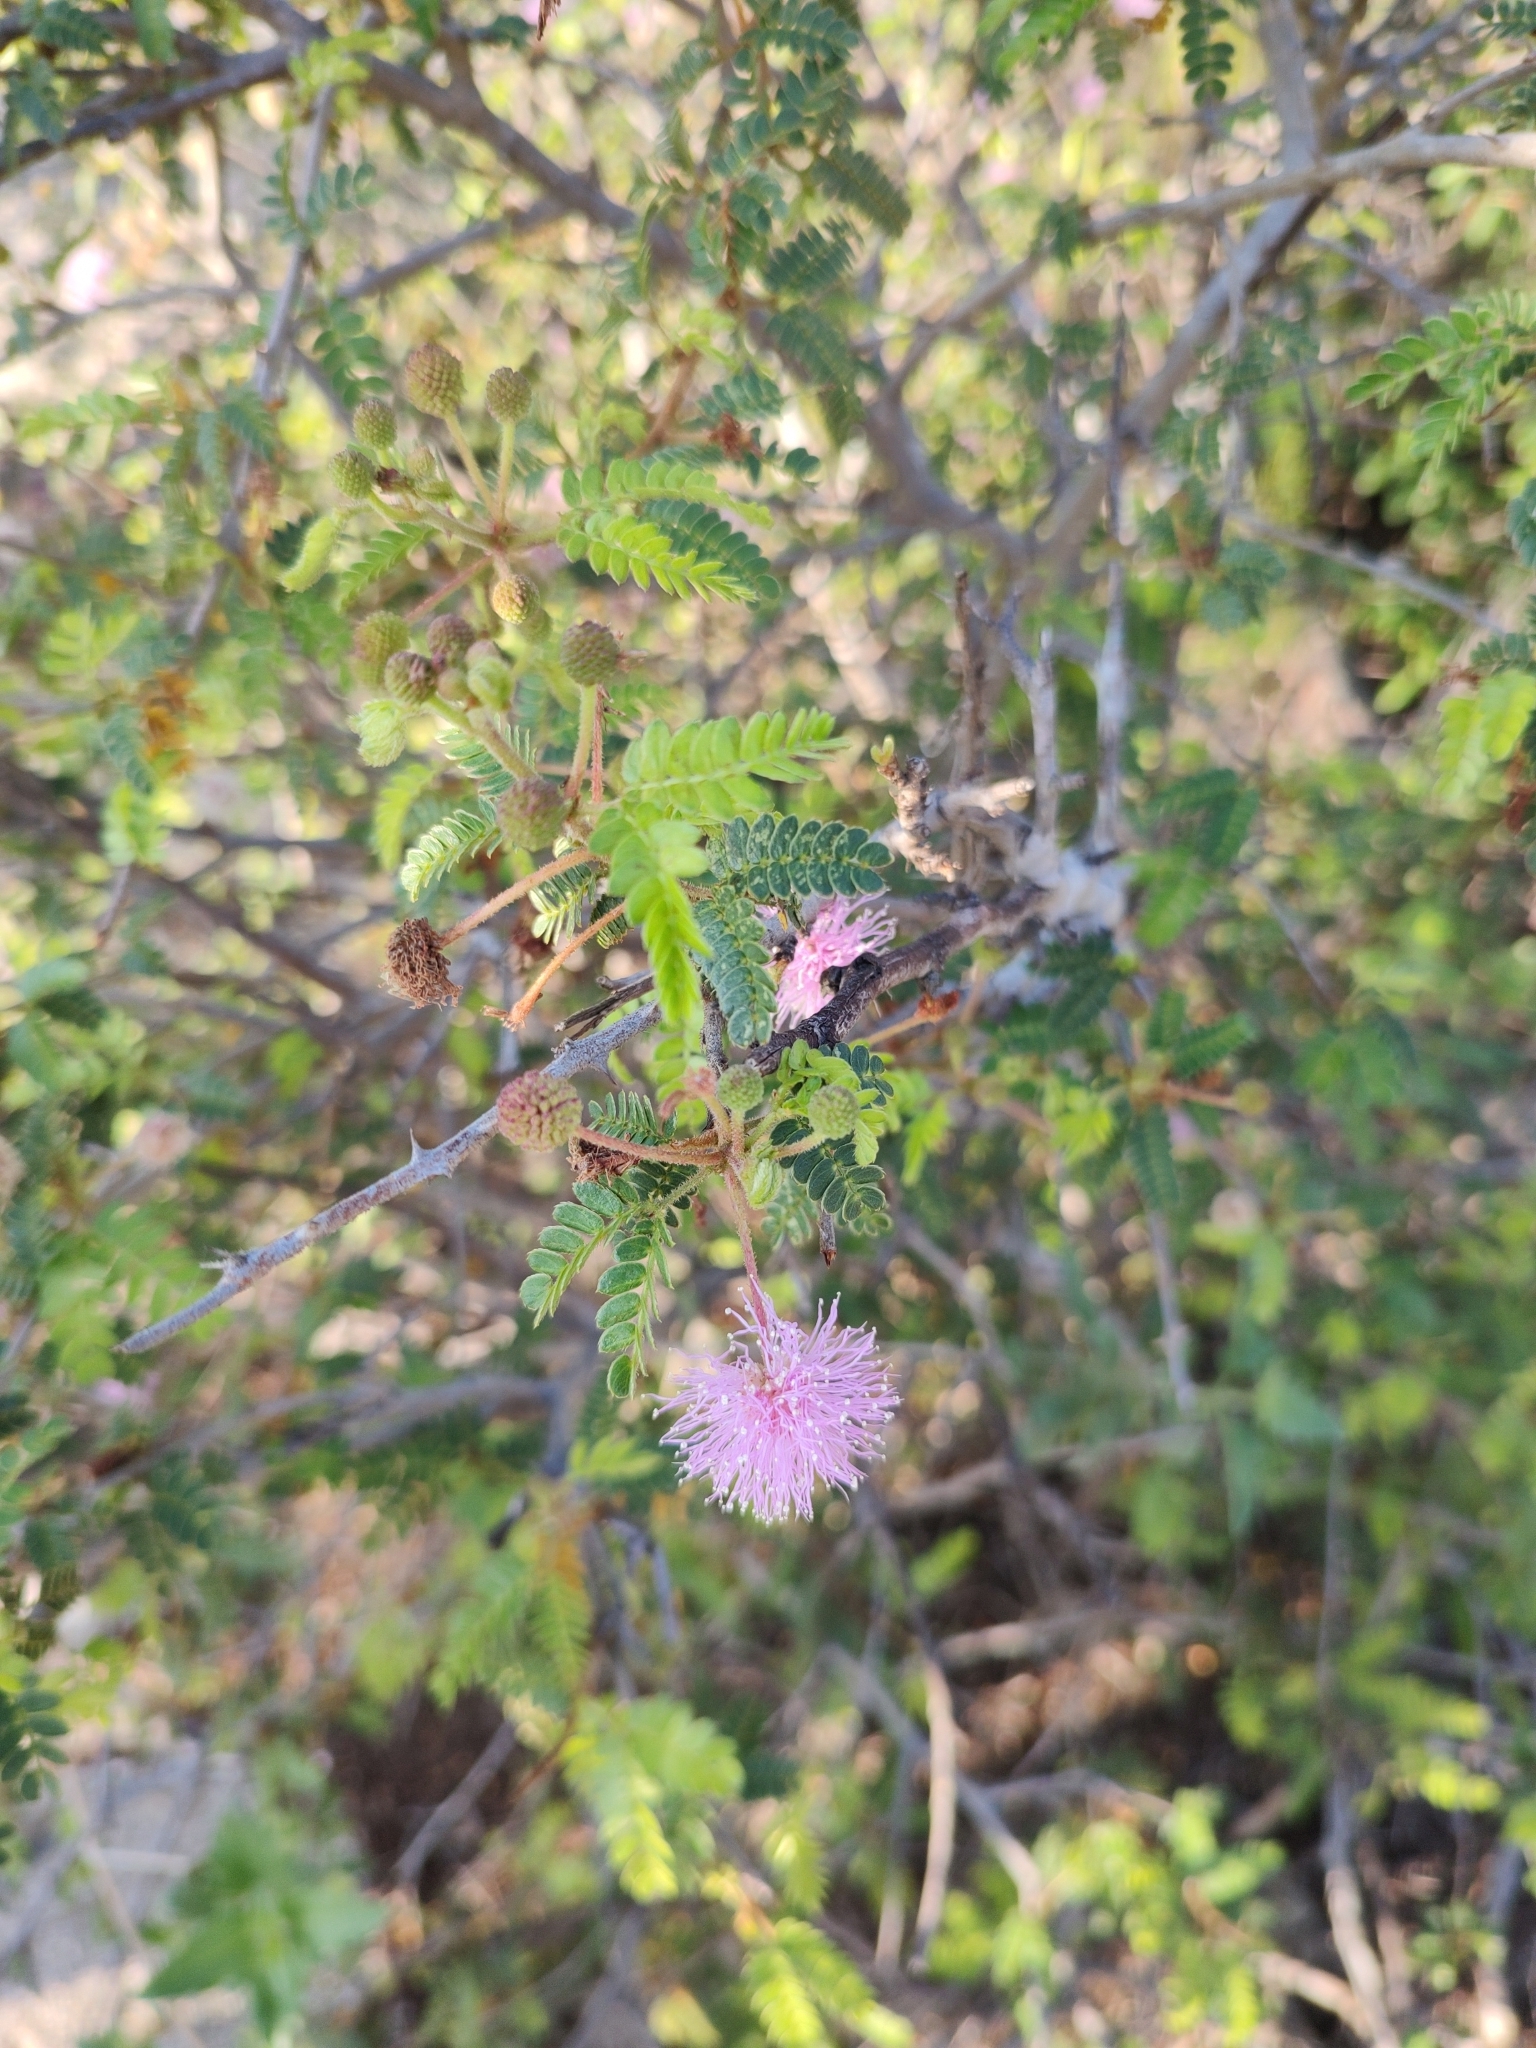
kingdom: Plantae
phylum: Tracheophyta
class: Magnoliopsida
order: Fabales
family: Fabaceae
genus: Mimosa
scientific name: Mimosa tricephala
